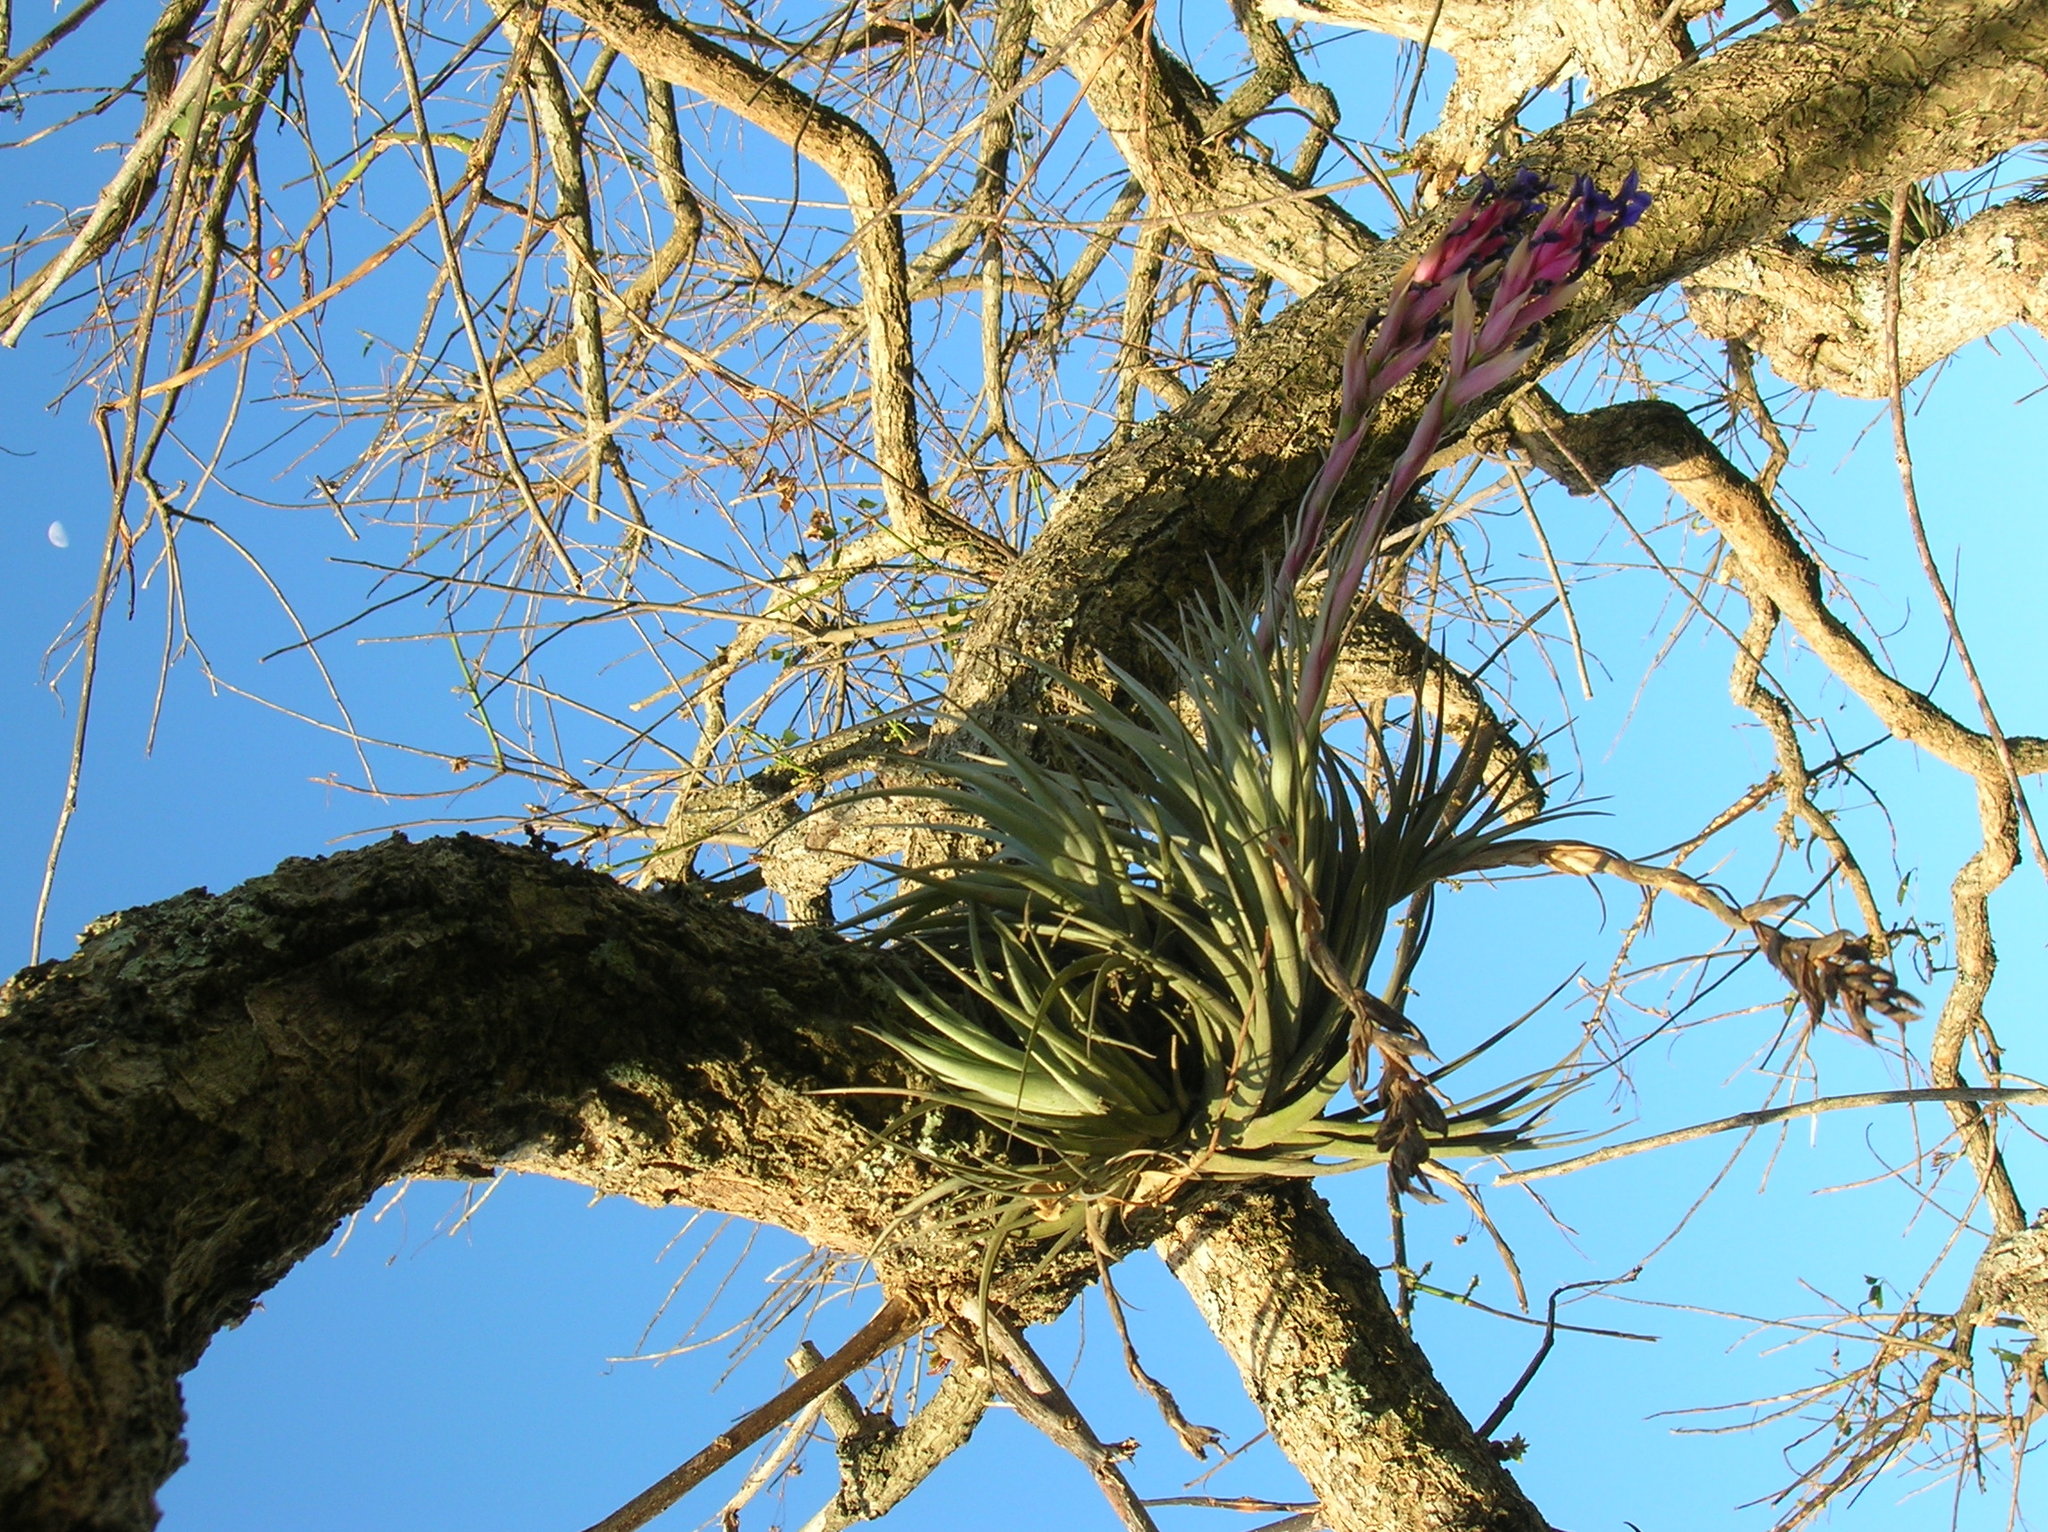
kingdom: Plantae
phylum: Tracheophyta
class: Liliopsida
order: Poales
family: Bromeliaceae
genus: Tillandsia
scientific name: Tillandsia aeranthos
